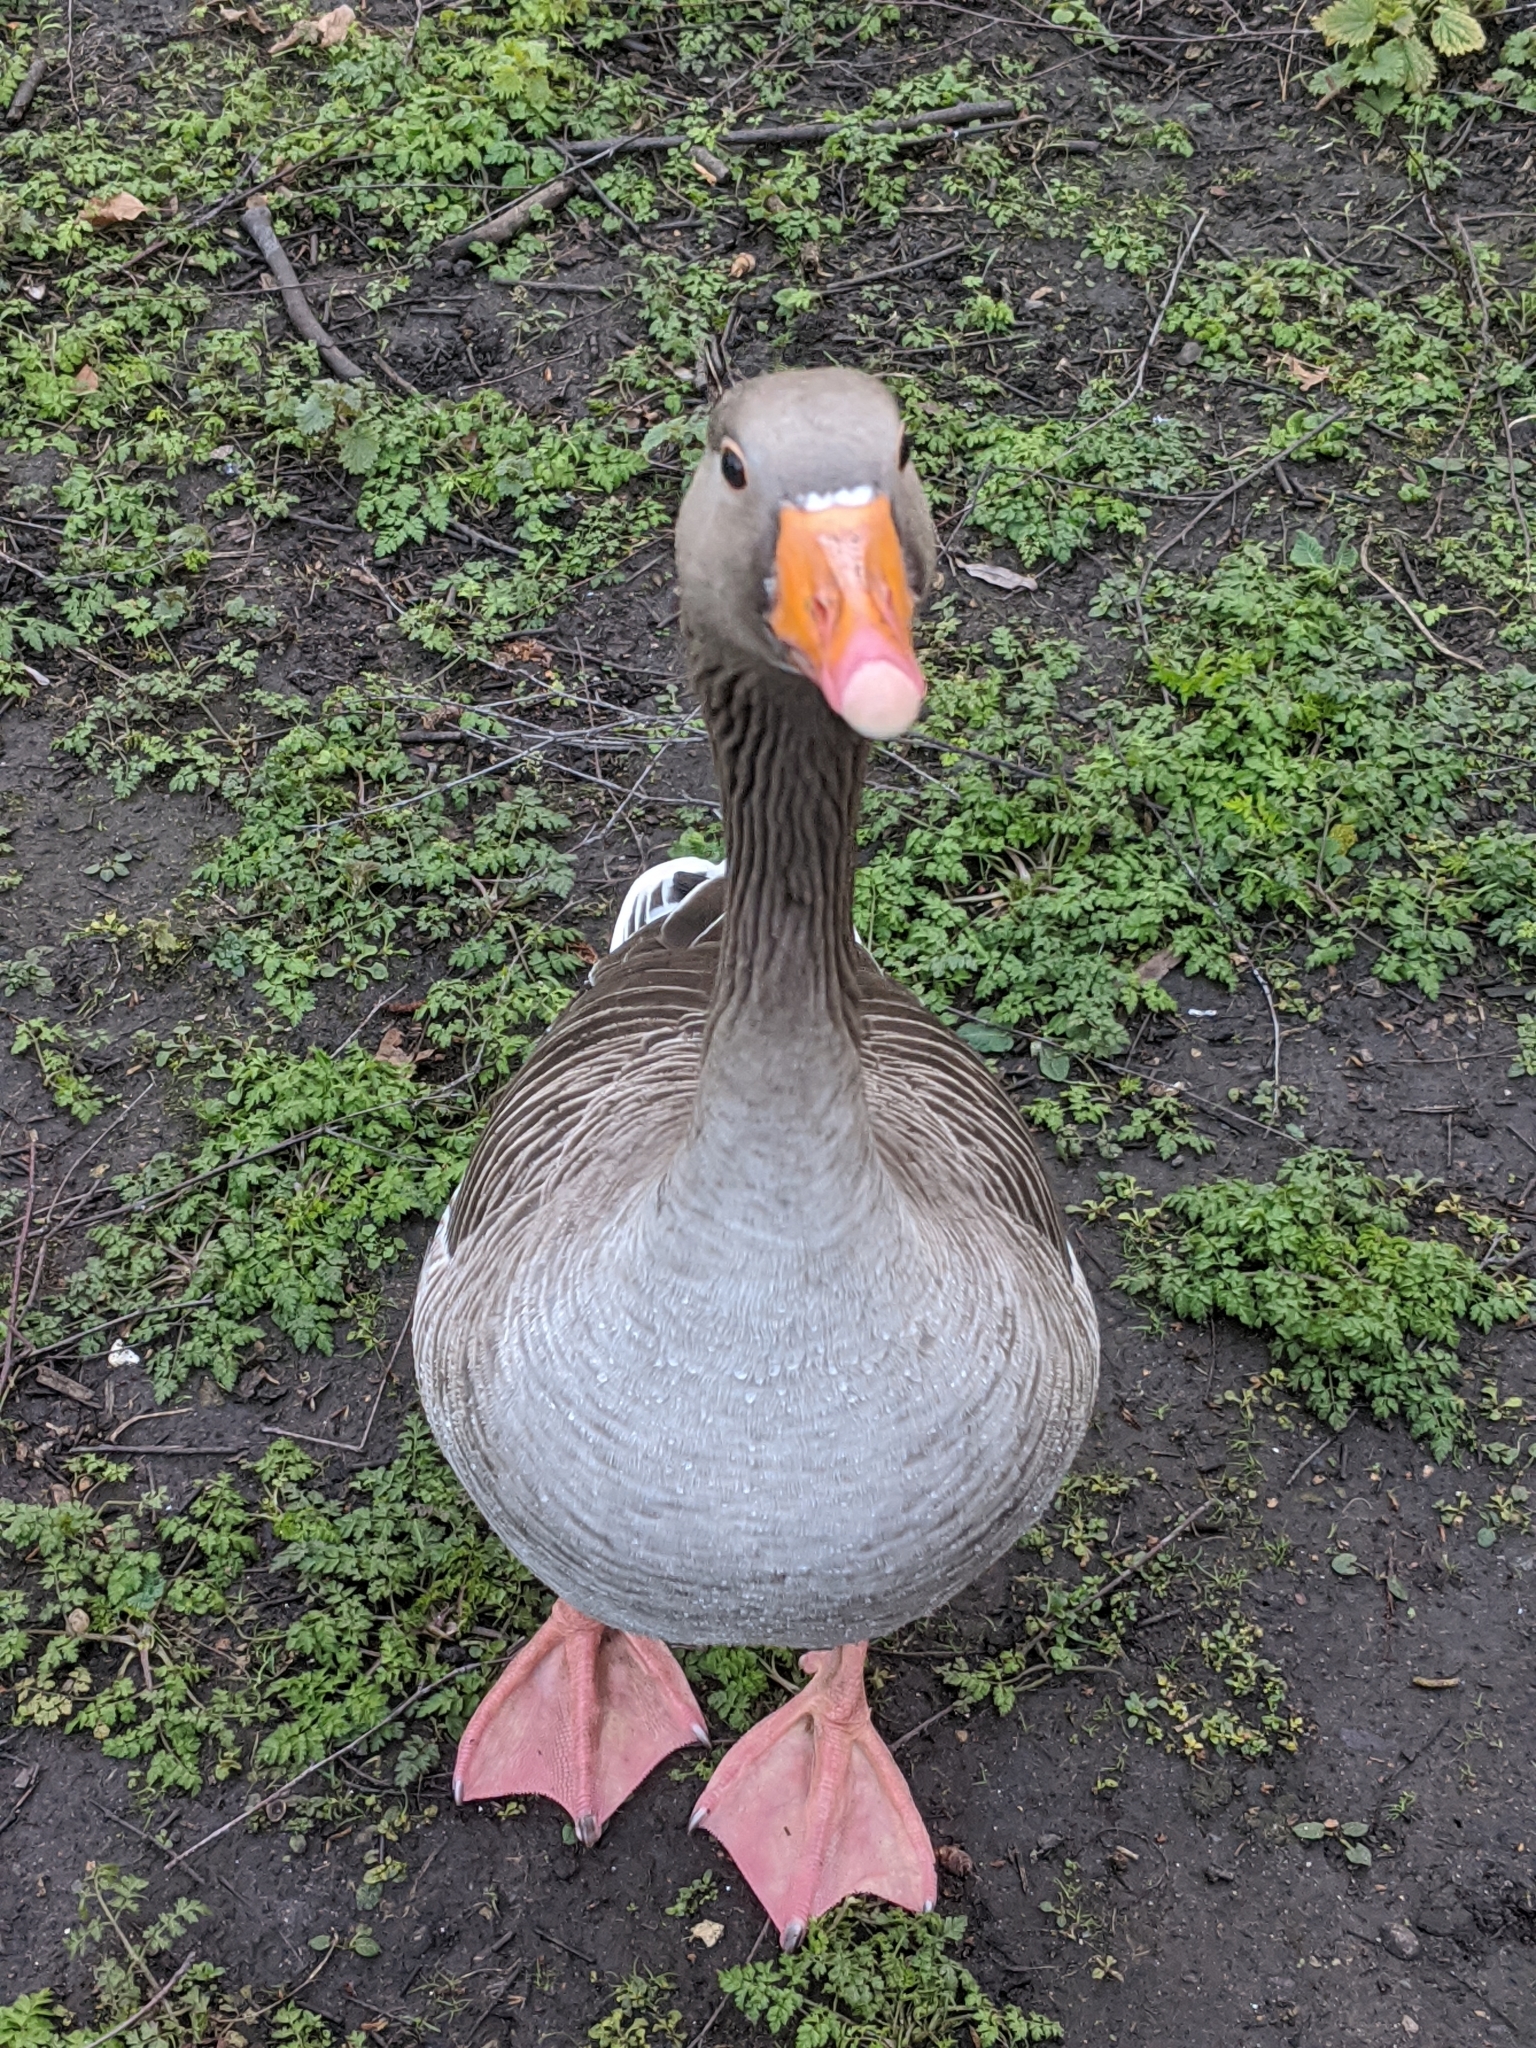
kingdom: Animalia
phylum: Chordata
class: Aves
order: Anseriformes
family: Anatidae
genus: Anser
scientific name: Anser anser
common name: Greylag goose
